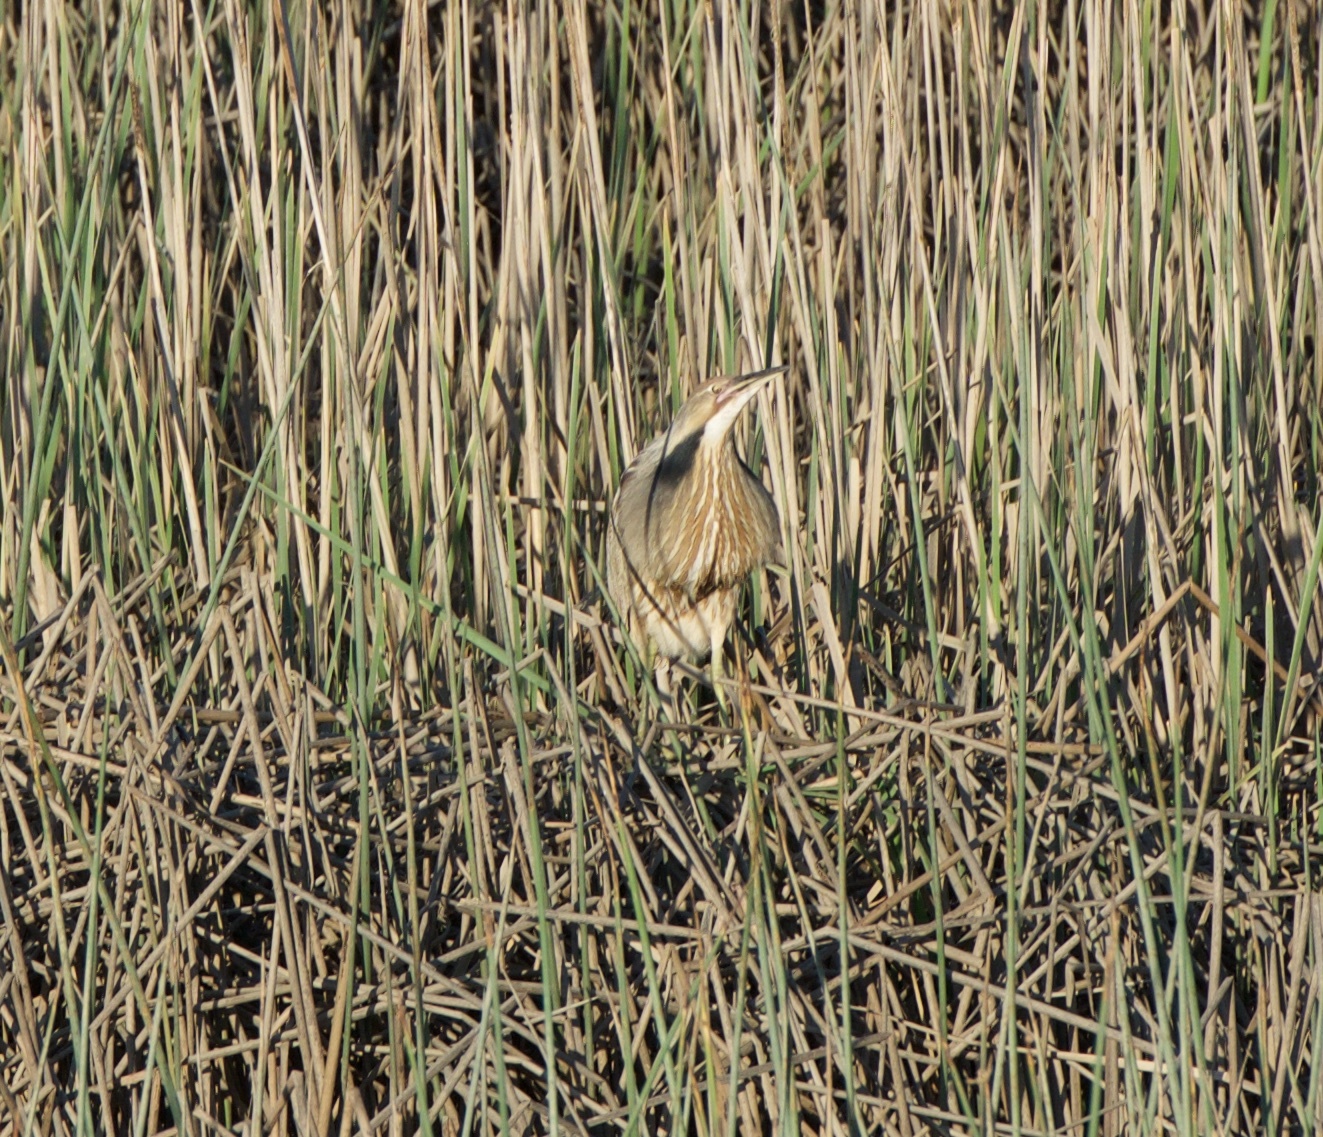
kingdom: Animalia
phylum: Chordata
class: Aves
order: Pelecaniformes
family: Ardeidae
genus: Botaurus
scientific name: Botaurus lentiginosus
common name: American bittern
